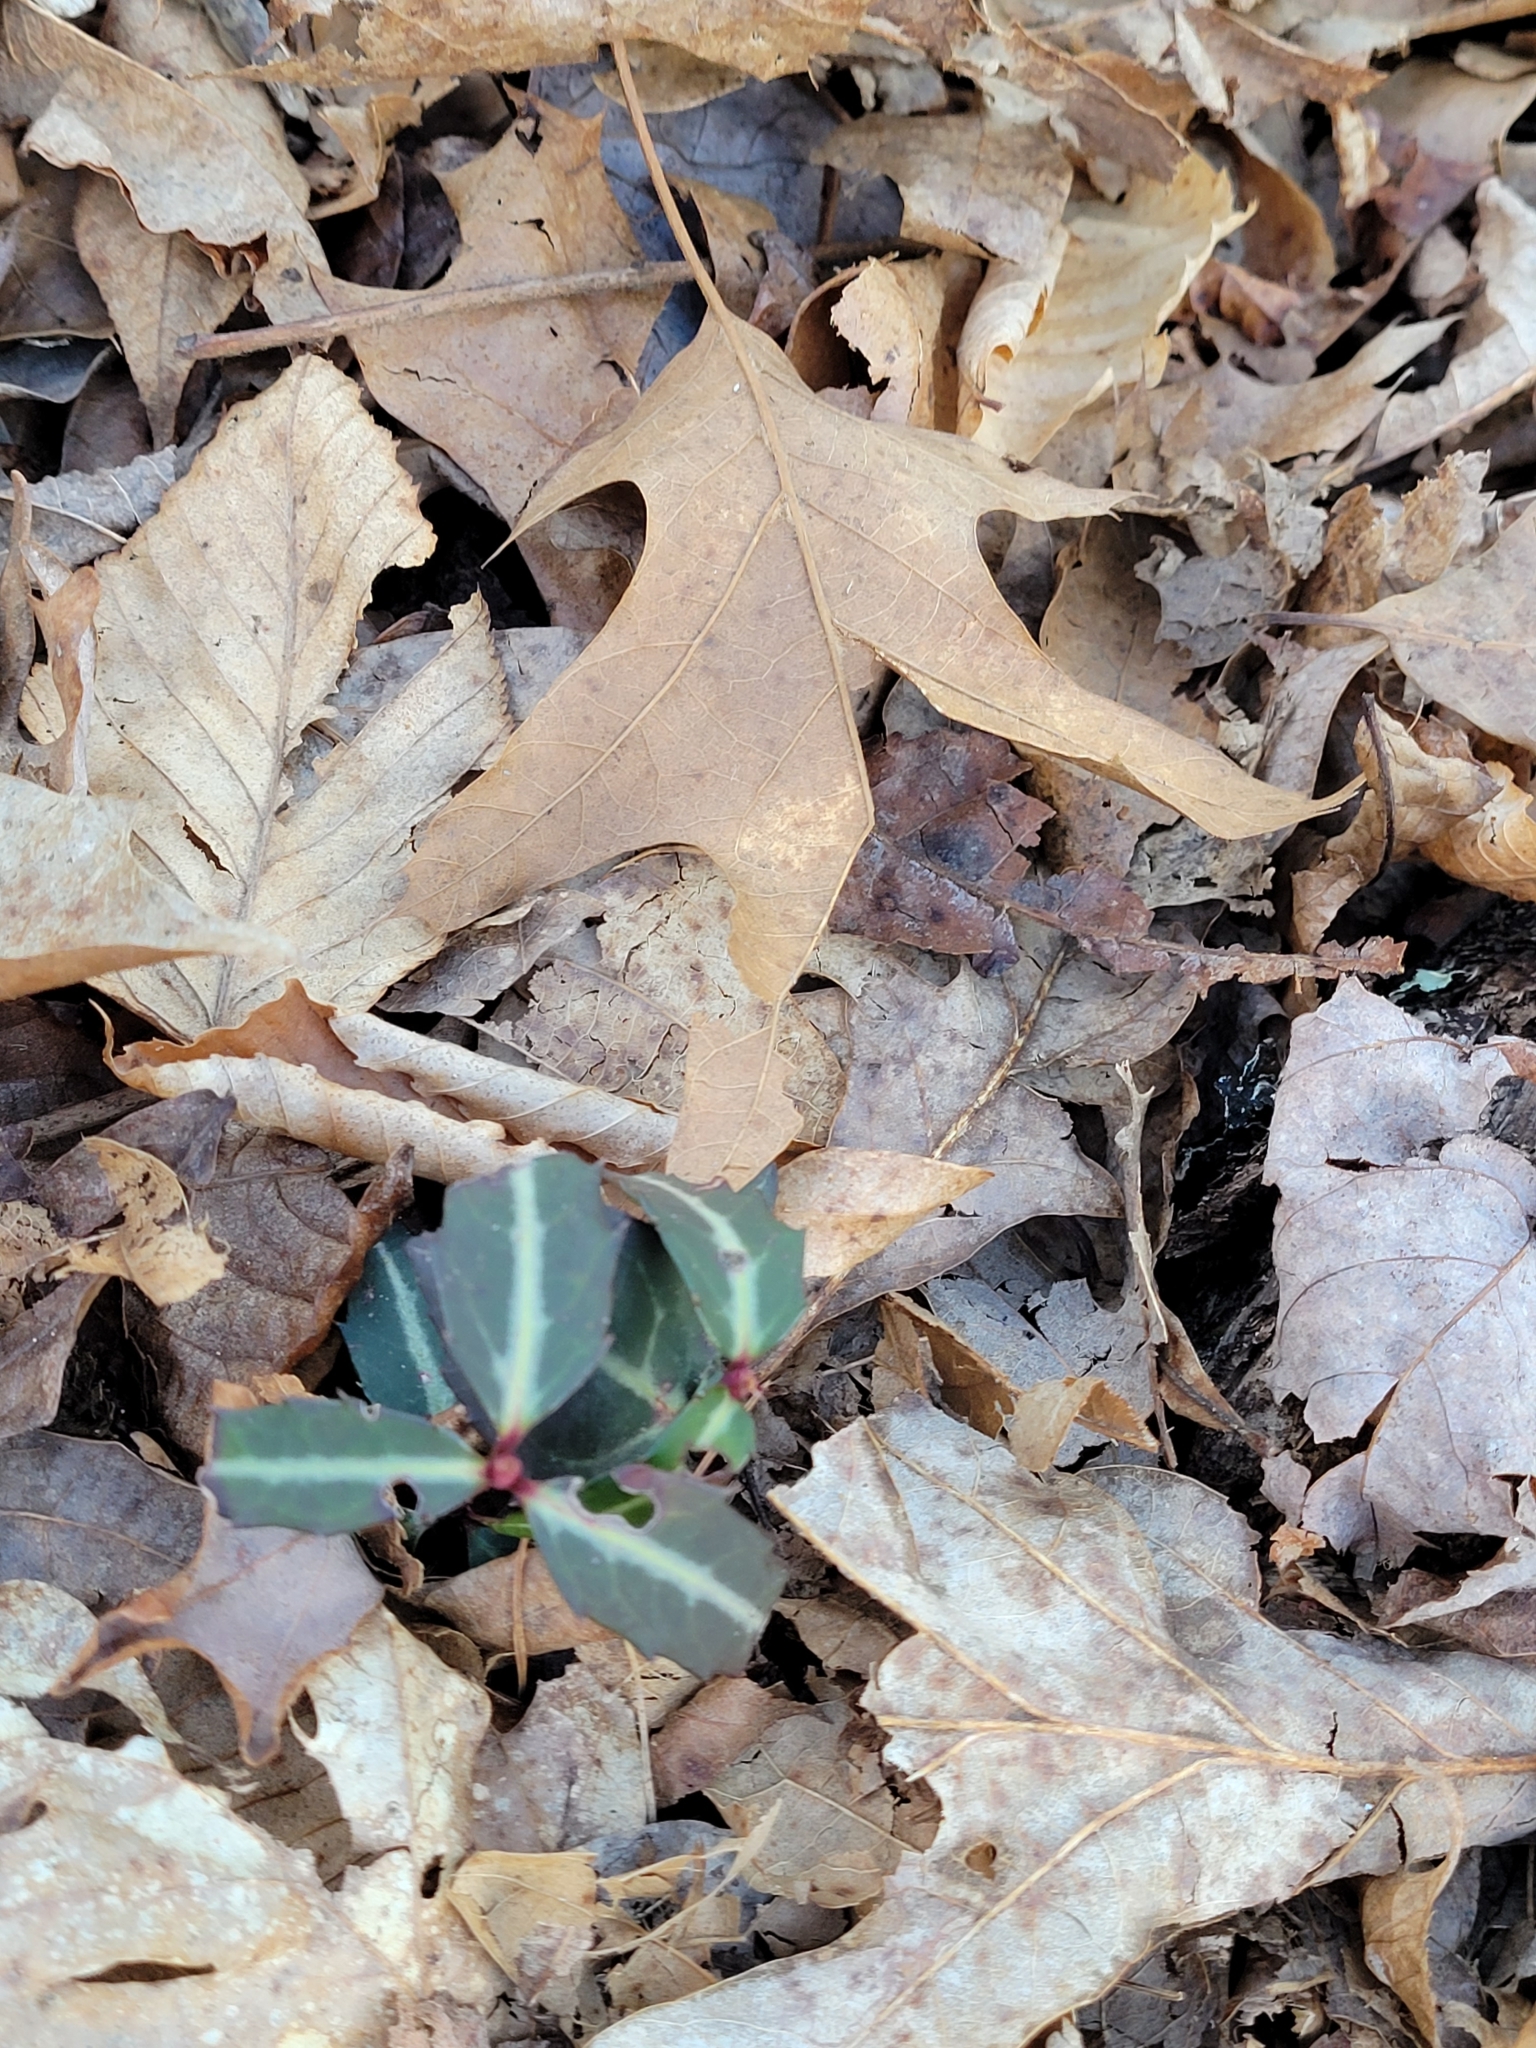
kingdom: Plantae
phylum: Tracheophyta
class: Magnoliopsida
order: Ericales
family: Ericaceae
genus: Chimaphila
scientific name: Chimaphila maculata
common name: Spotted pipsissewa
